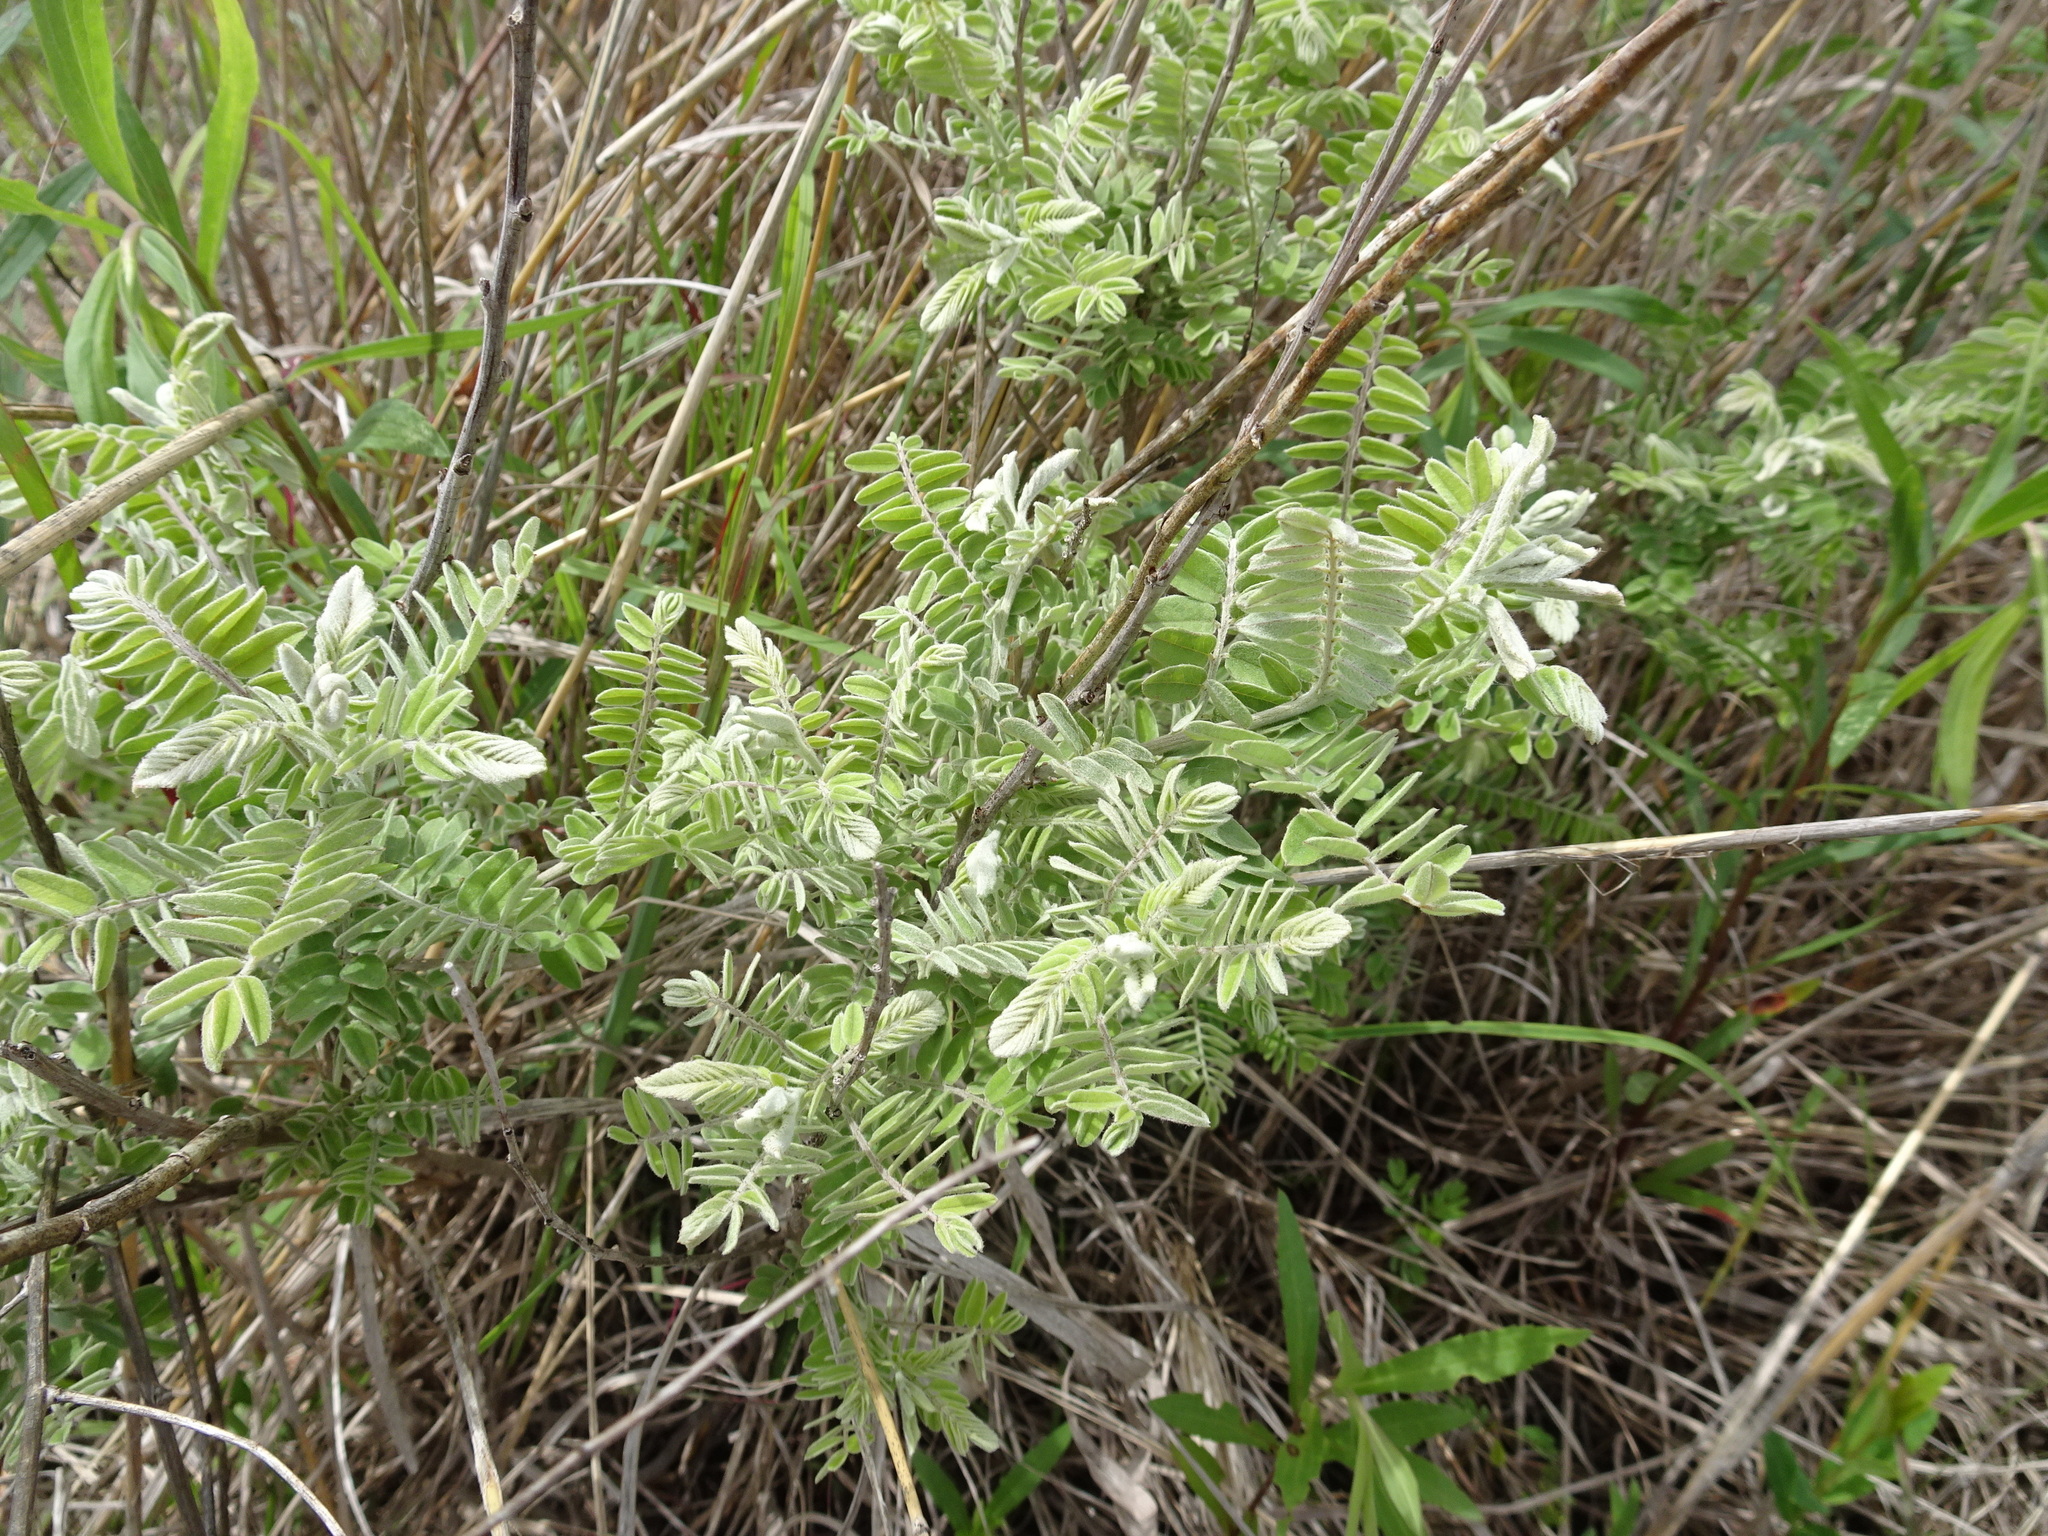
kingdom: Plantae
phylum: Tracheophyta
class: Magnoliopsida
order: Fabales
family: Fabaceae
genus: Amorpha
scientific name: Amorpha canescens
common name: Leadplant
